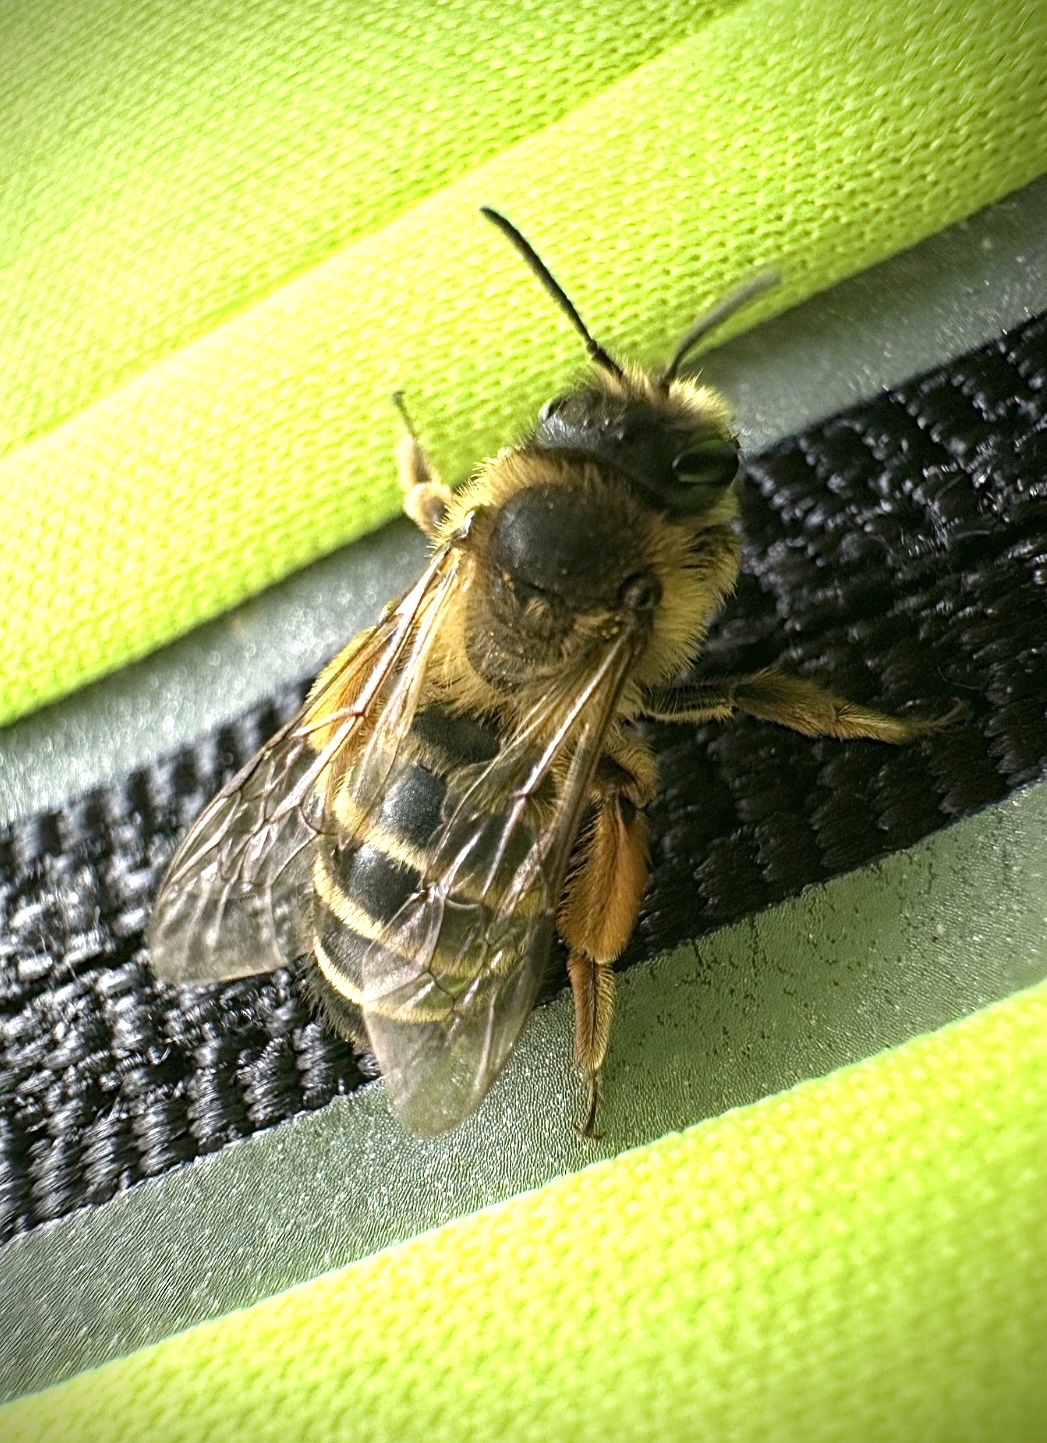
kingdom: Animalia
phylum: Arthropoda
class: Insecta
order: Hymenoptera
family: Andrenidae
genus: Andrena
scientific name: Andrena flavipes
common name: Yellow-legged mining bee
